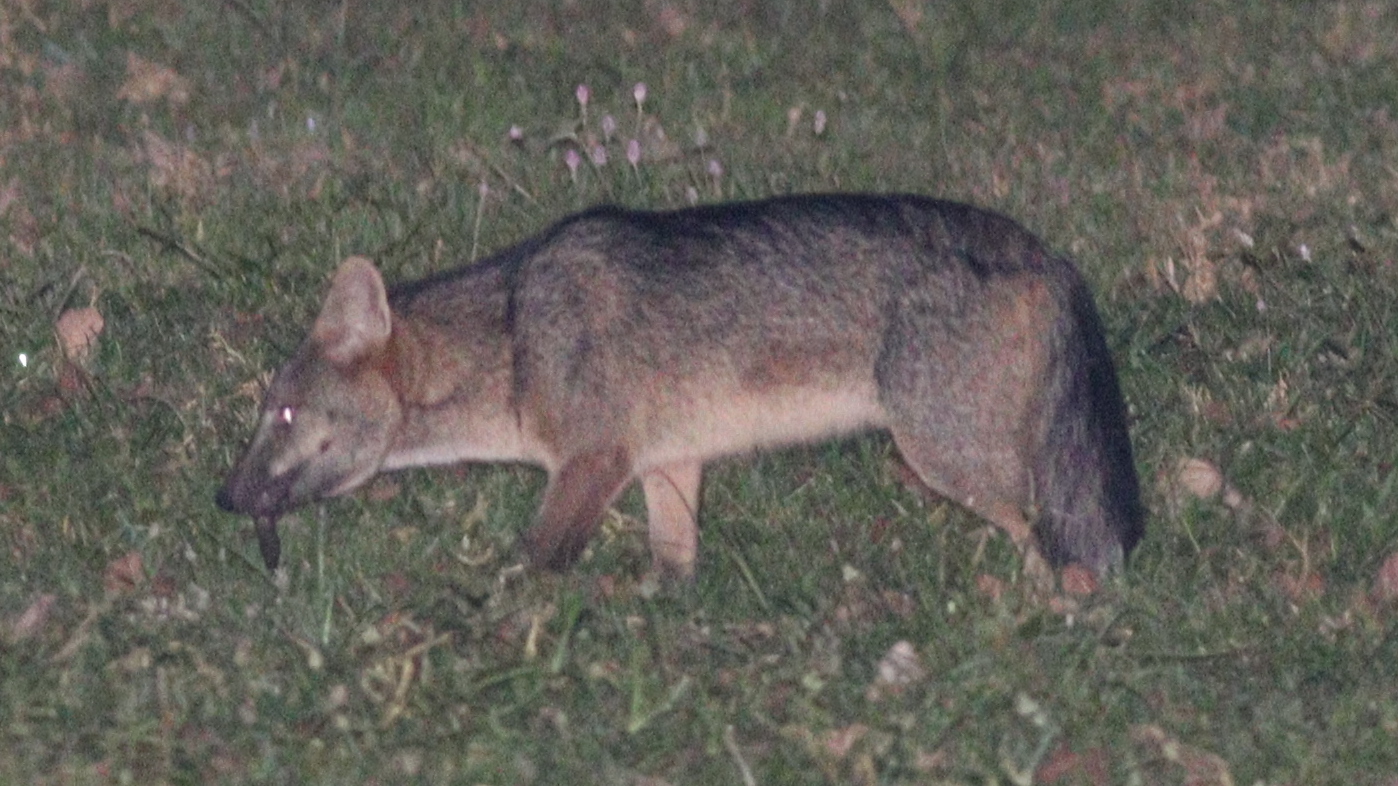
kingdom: Animalia
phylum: Chordata
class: Mammalia
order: Carnivora
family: Canidae
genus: Cerdocyon
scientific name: Cerdocyon thous
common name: Crab-eating fox
